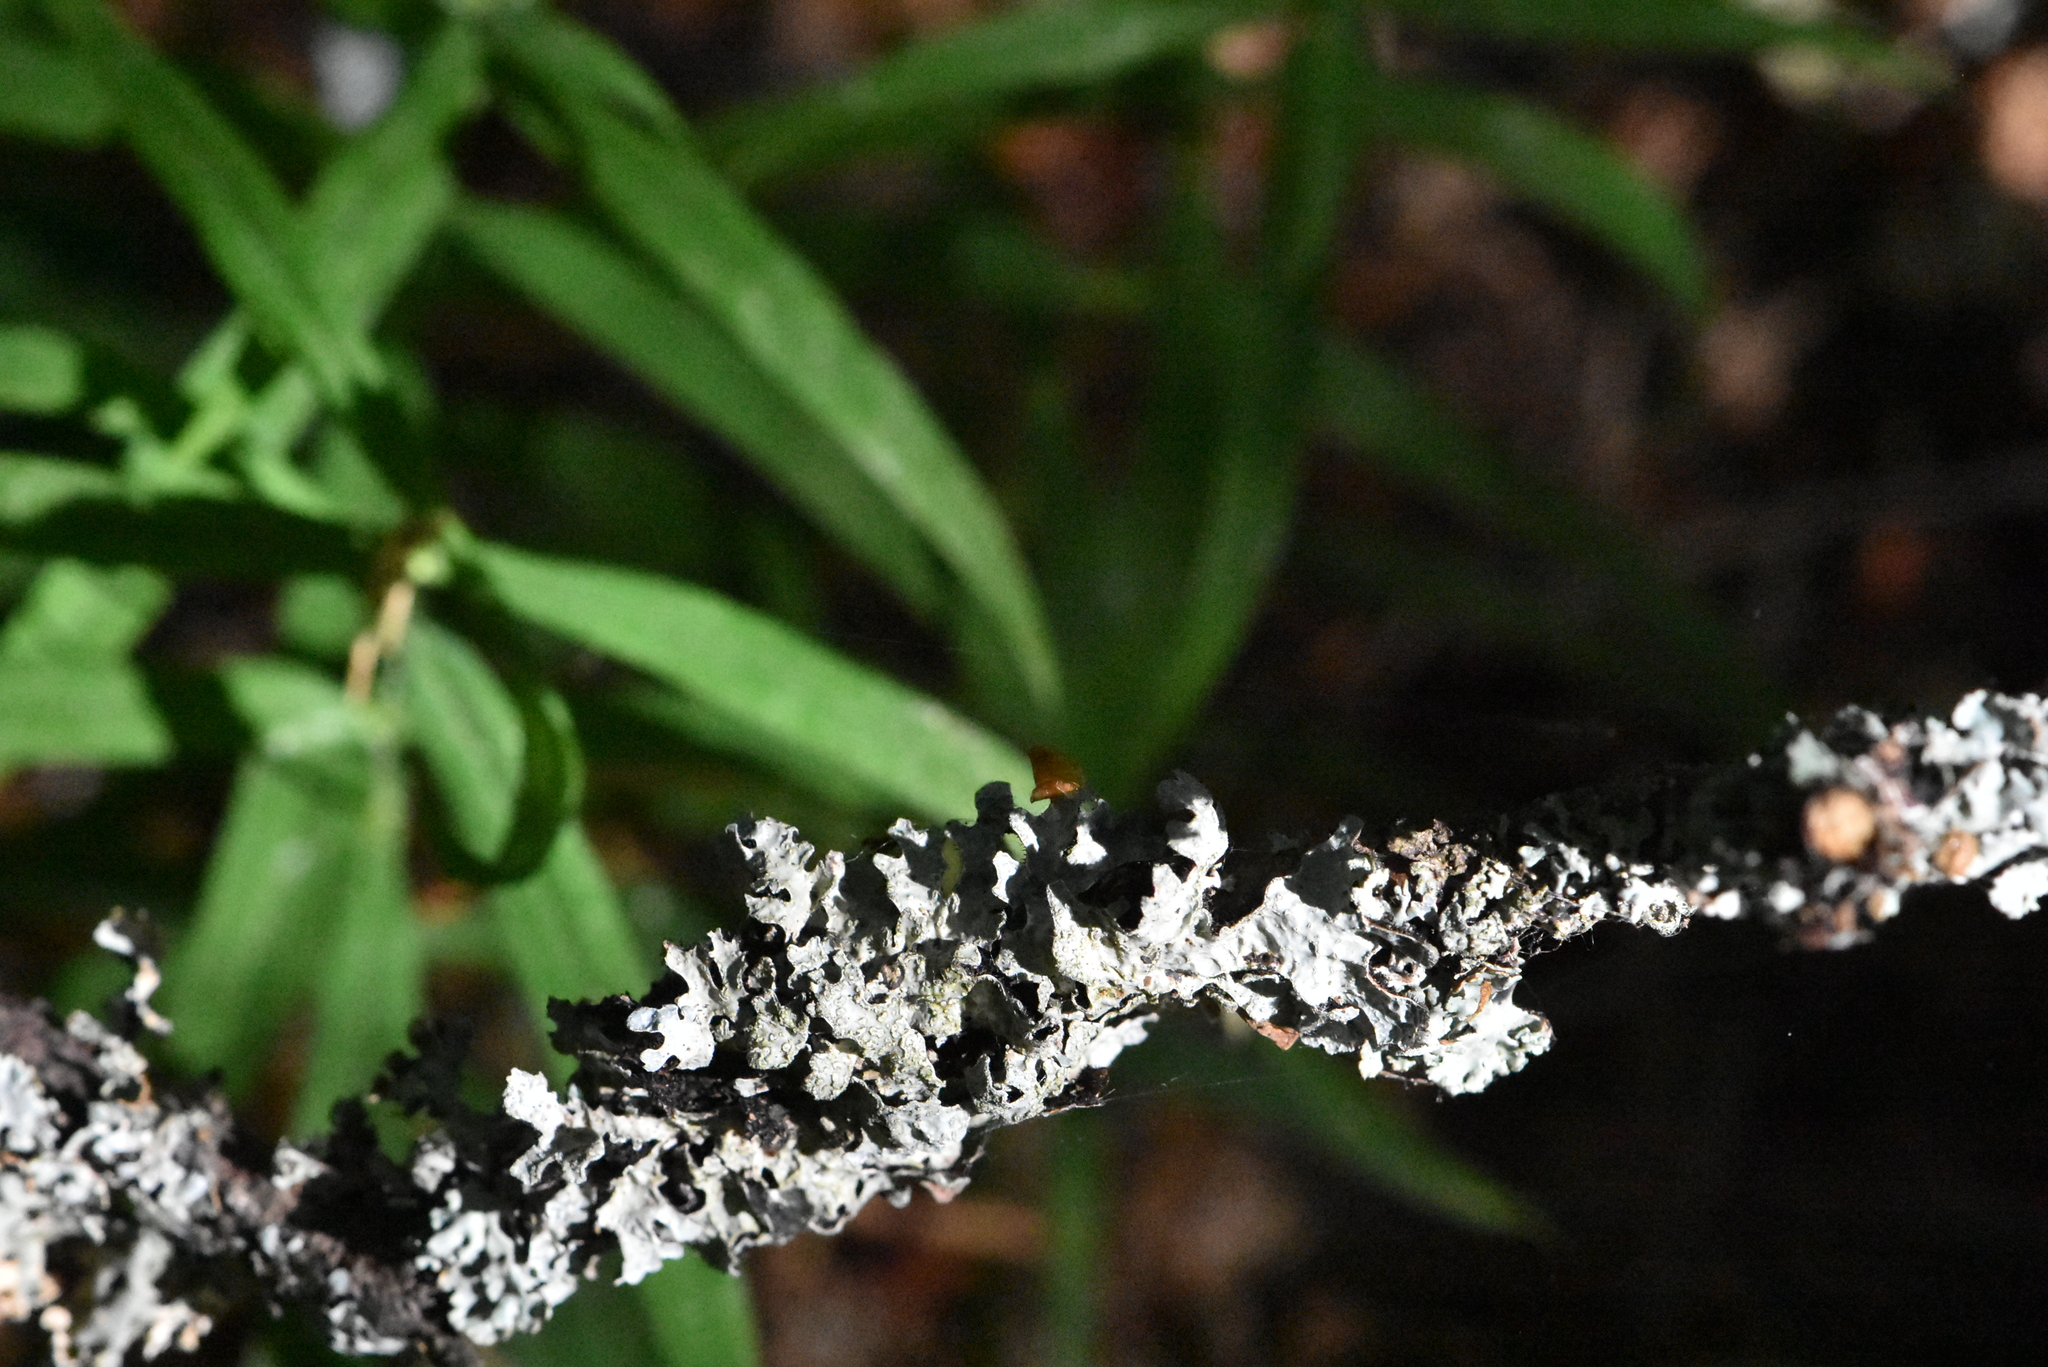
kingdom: Fungi
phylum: Ascomycota
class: Lecanoromycetes
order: Lecanorales
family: Parmeliaceae
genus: Parmelia
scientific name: Parmelia sulcata
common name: Netted shield lichen
